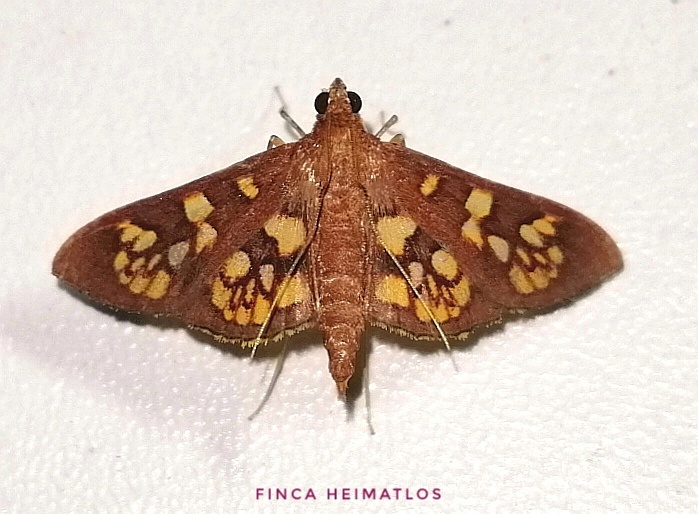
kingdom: Animalia
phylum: Arthropoda
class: Insecta
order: Lepidoptera
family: Crambidae
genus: Trithyris
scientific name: Trithyris Prenesta fenestrinalis
